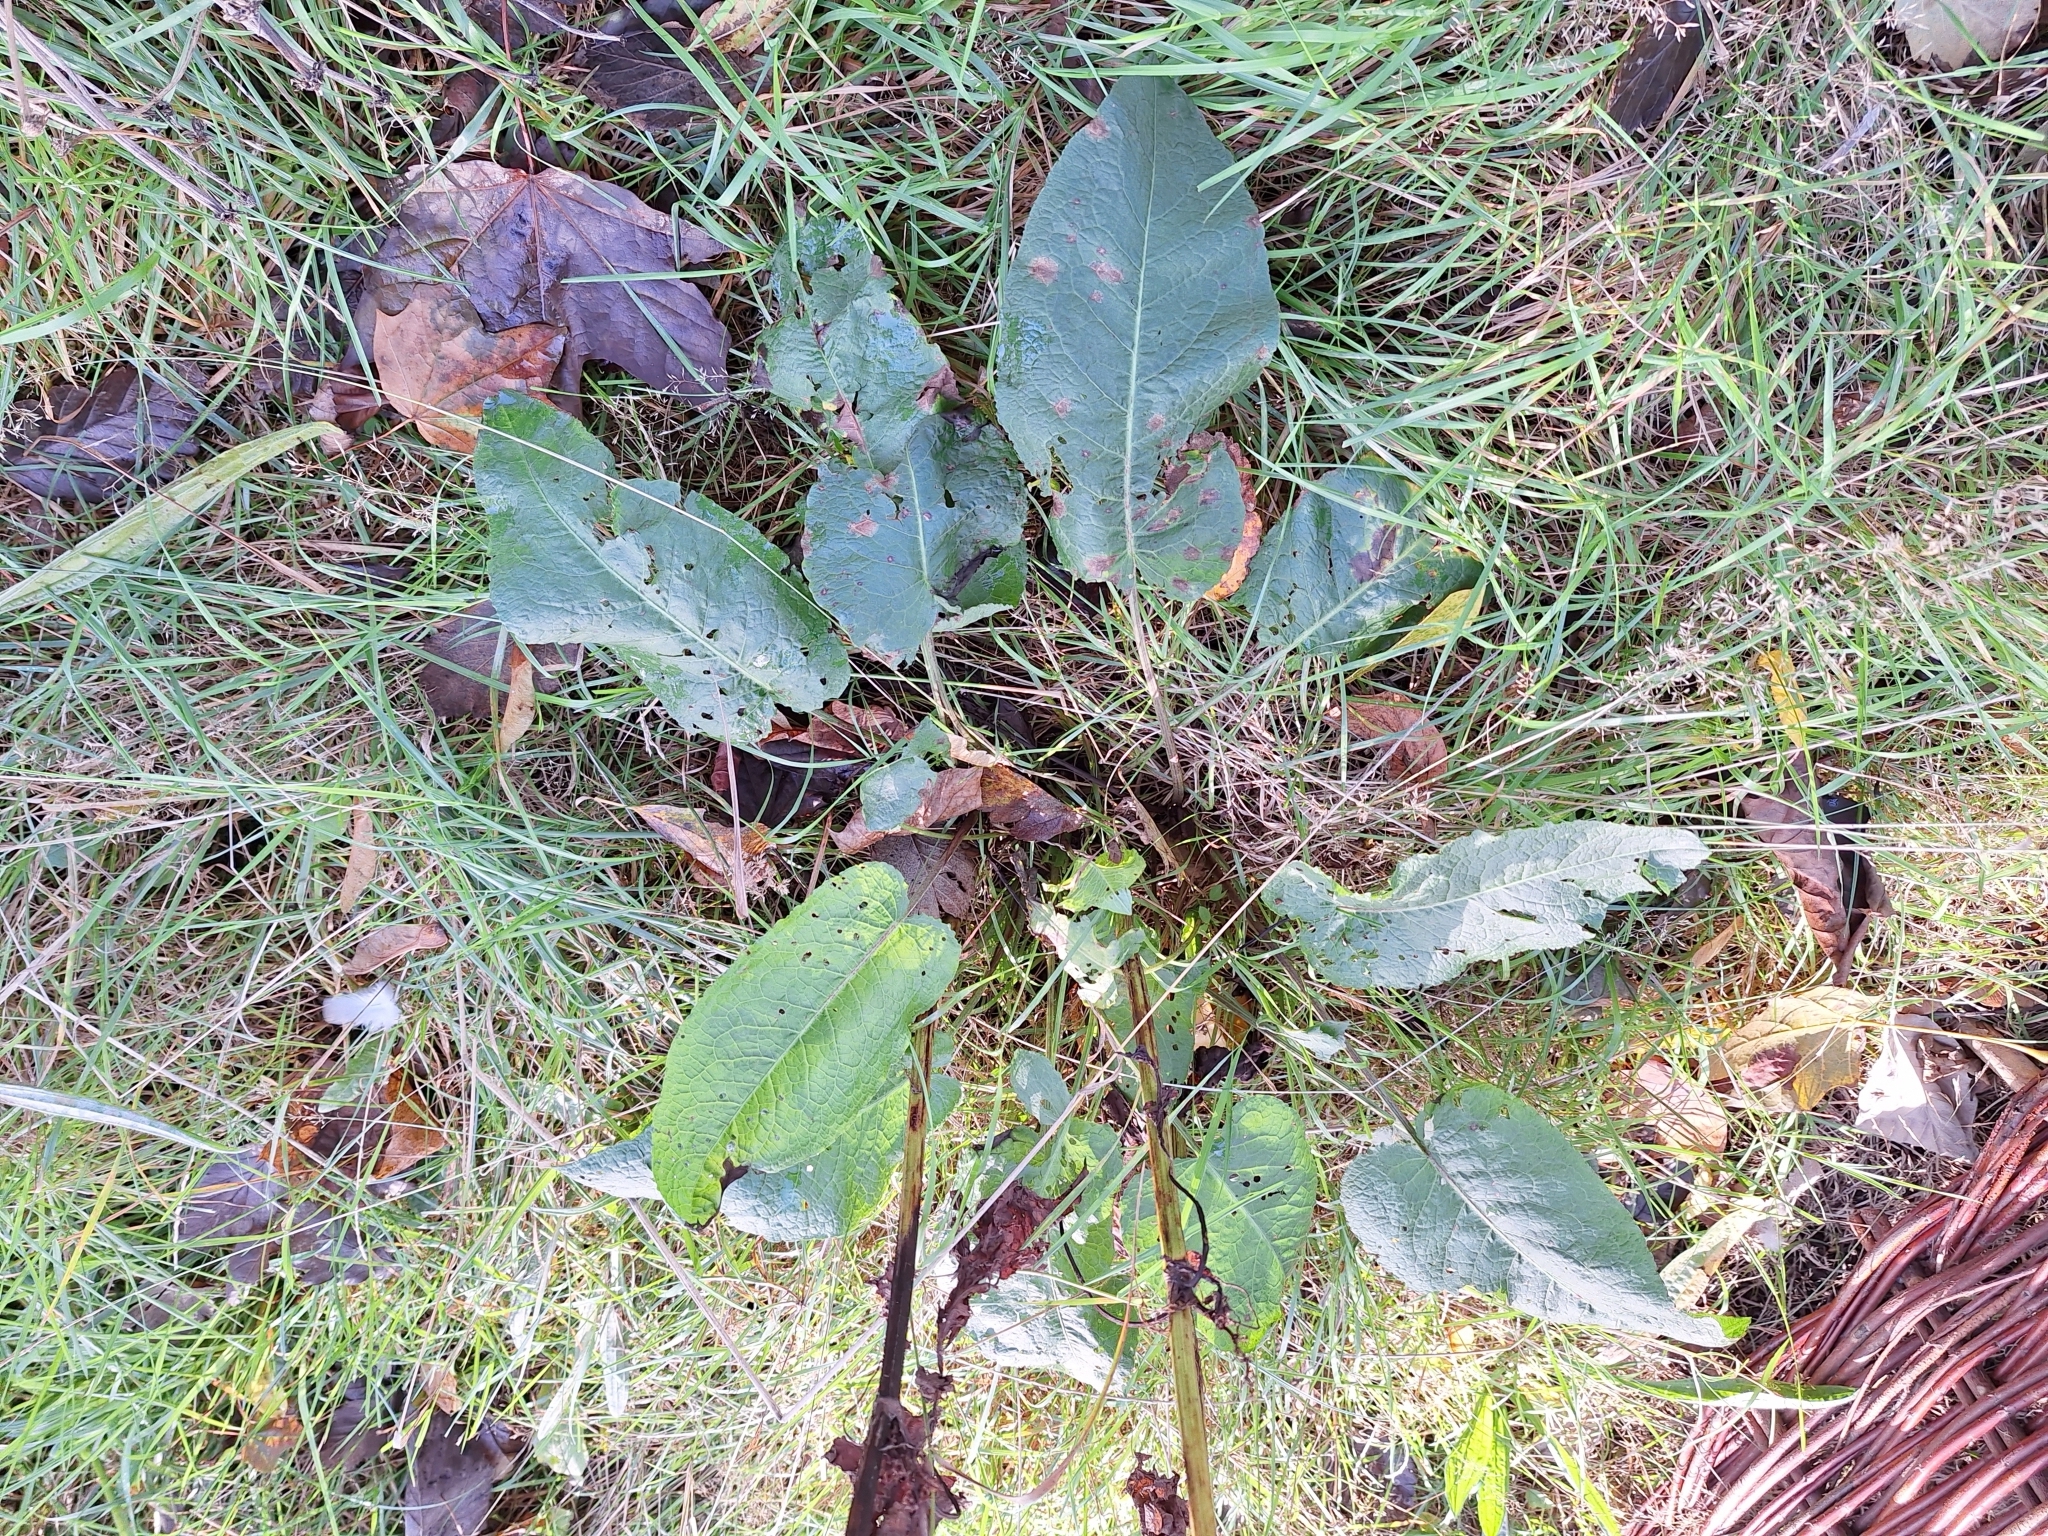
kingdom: Plantae
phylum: Tracheophyta
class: Magnoliopsida
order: Caryophyllales
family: Polygonaceae
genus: Rumex
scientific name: Rumex obtusifolius
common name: Bitter dock
